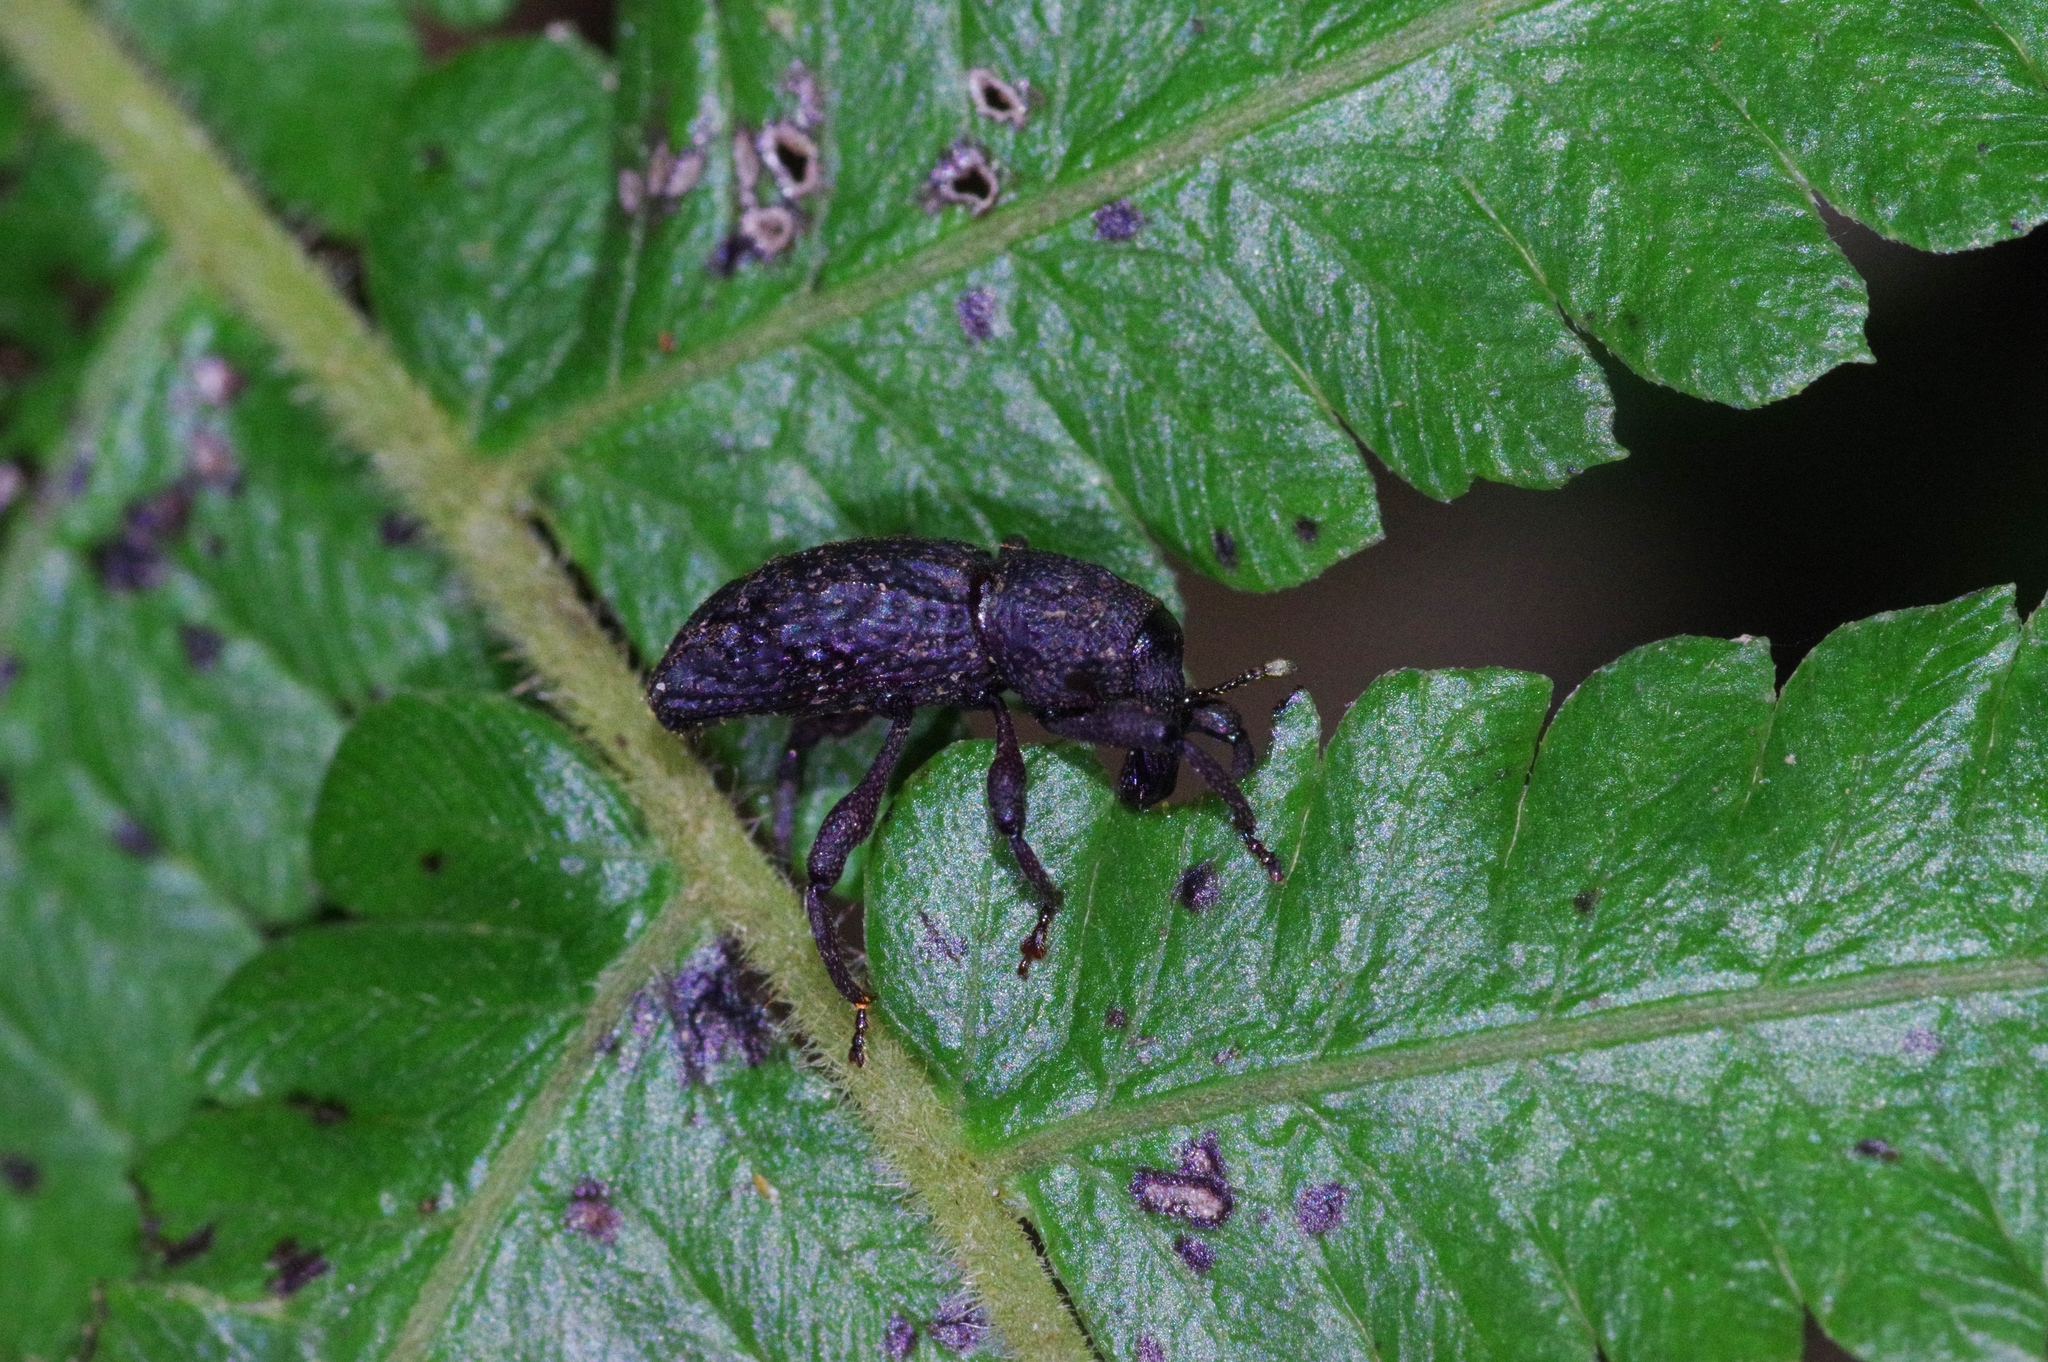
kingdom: Animalia
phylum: Arthropoda
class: Insecta
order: Coleoptera
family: Curculionidae
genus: Euthycus
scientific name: Euthycus inaequalicollis
